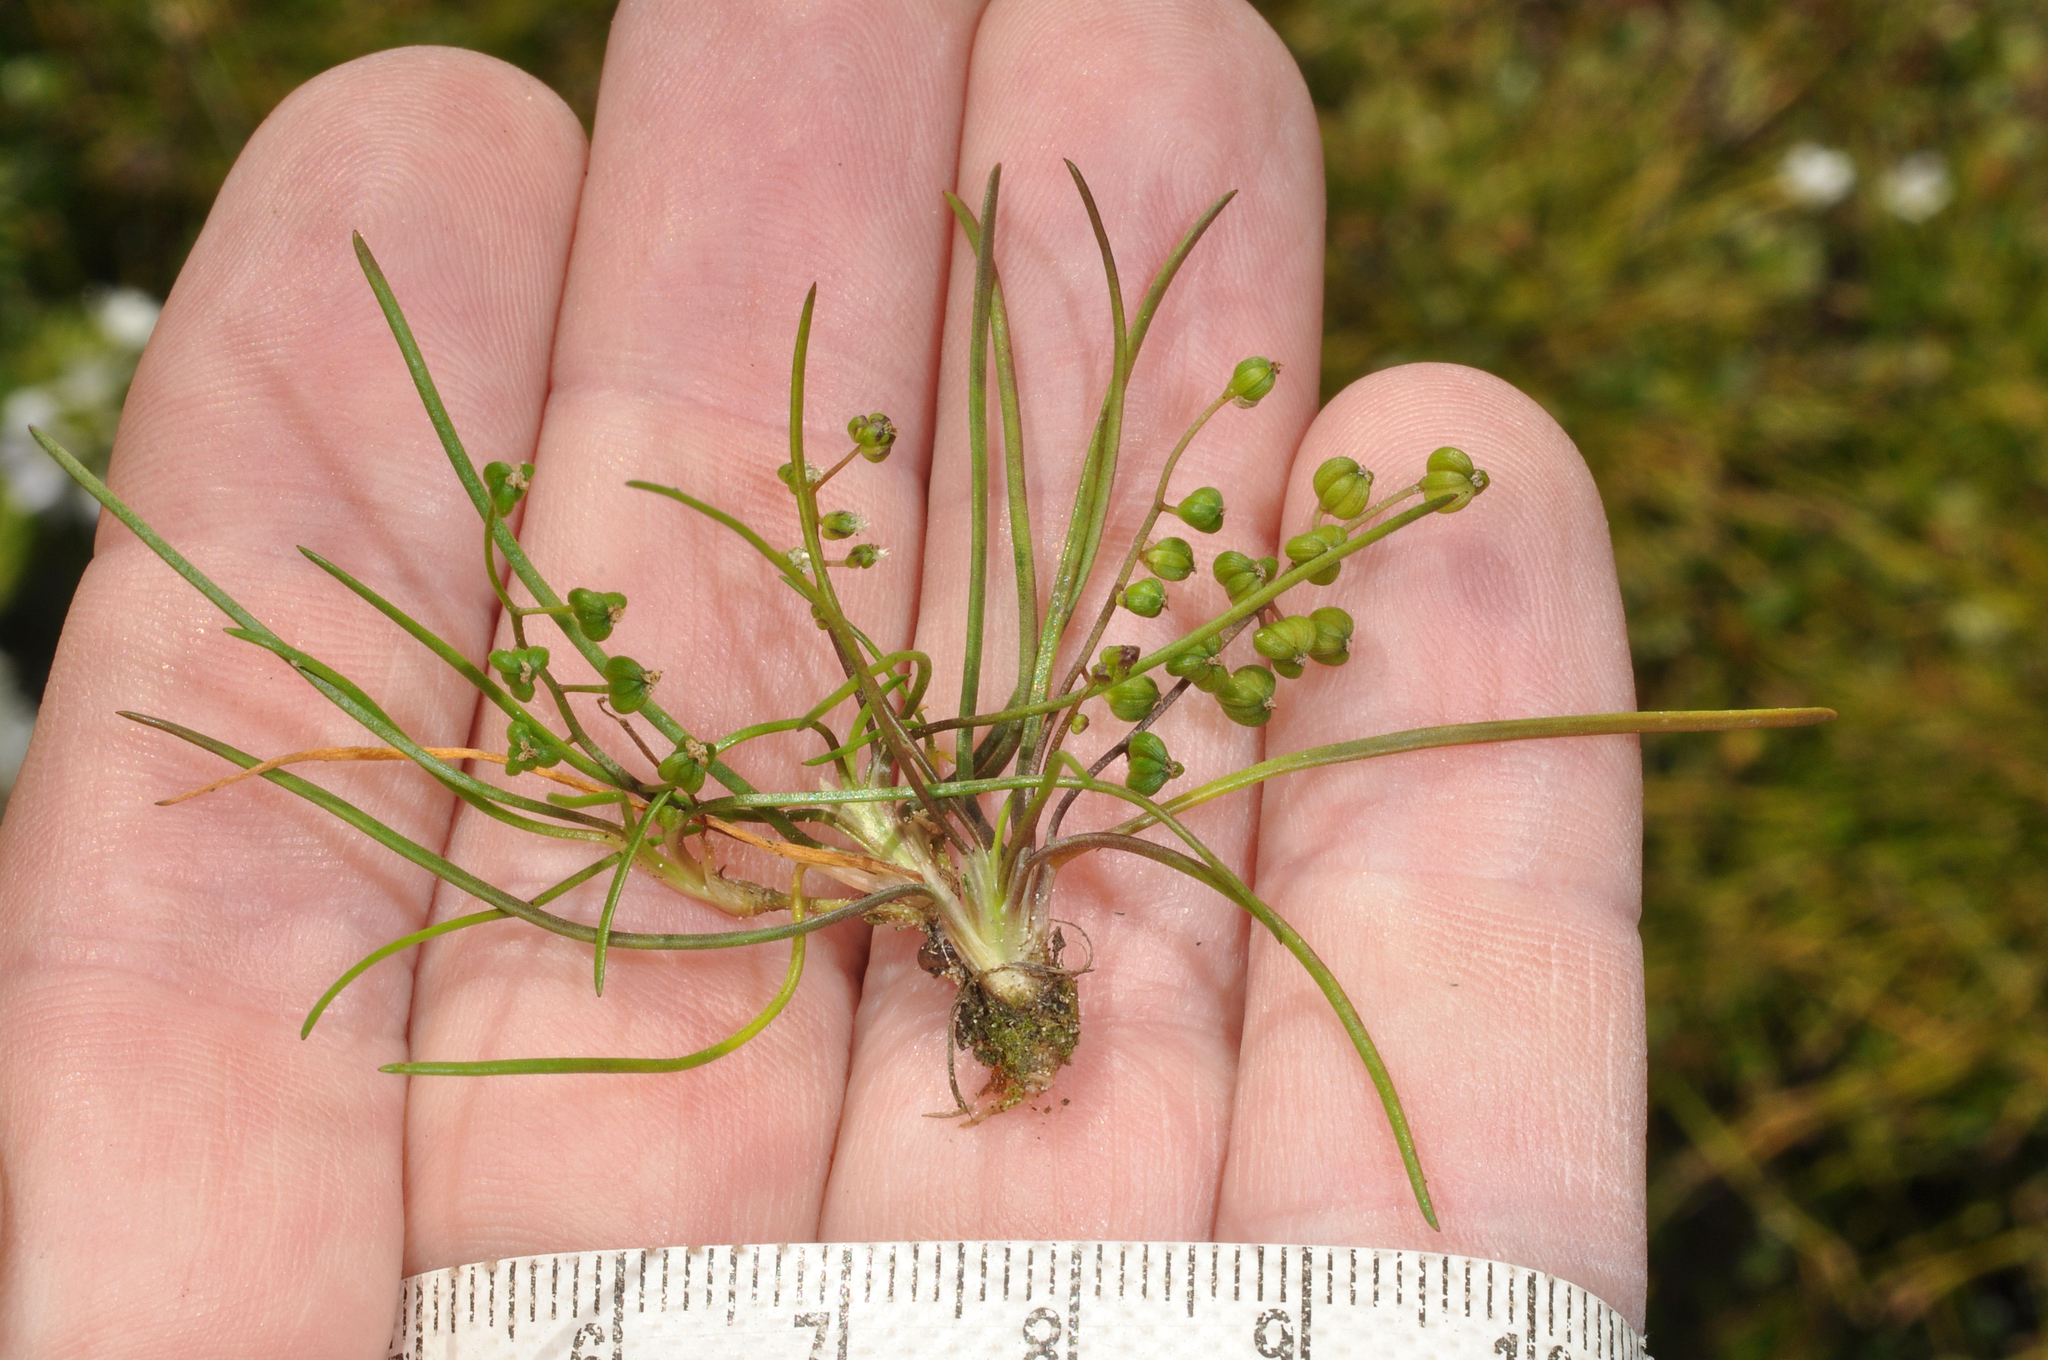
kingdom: Plantae
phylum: Tracheophyta
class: Liliopsida
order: Alismatales
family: Juncaginaceae
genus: Triglochin
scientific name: Triglochin striata
